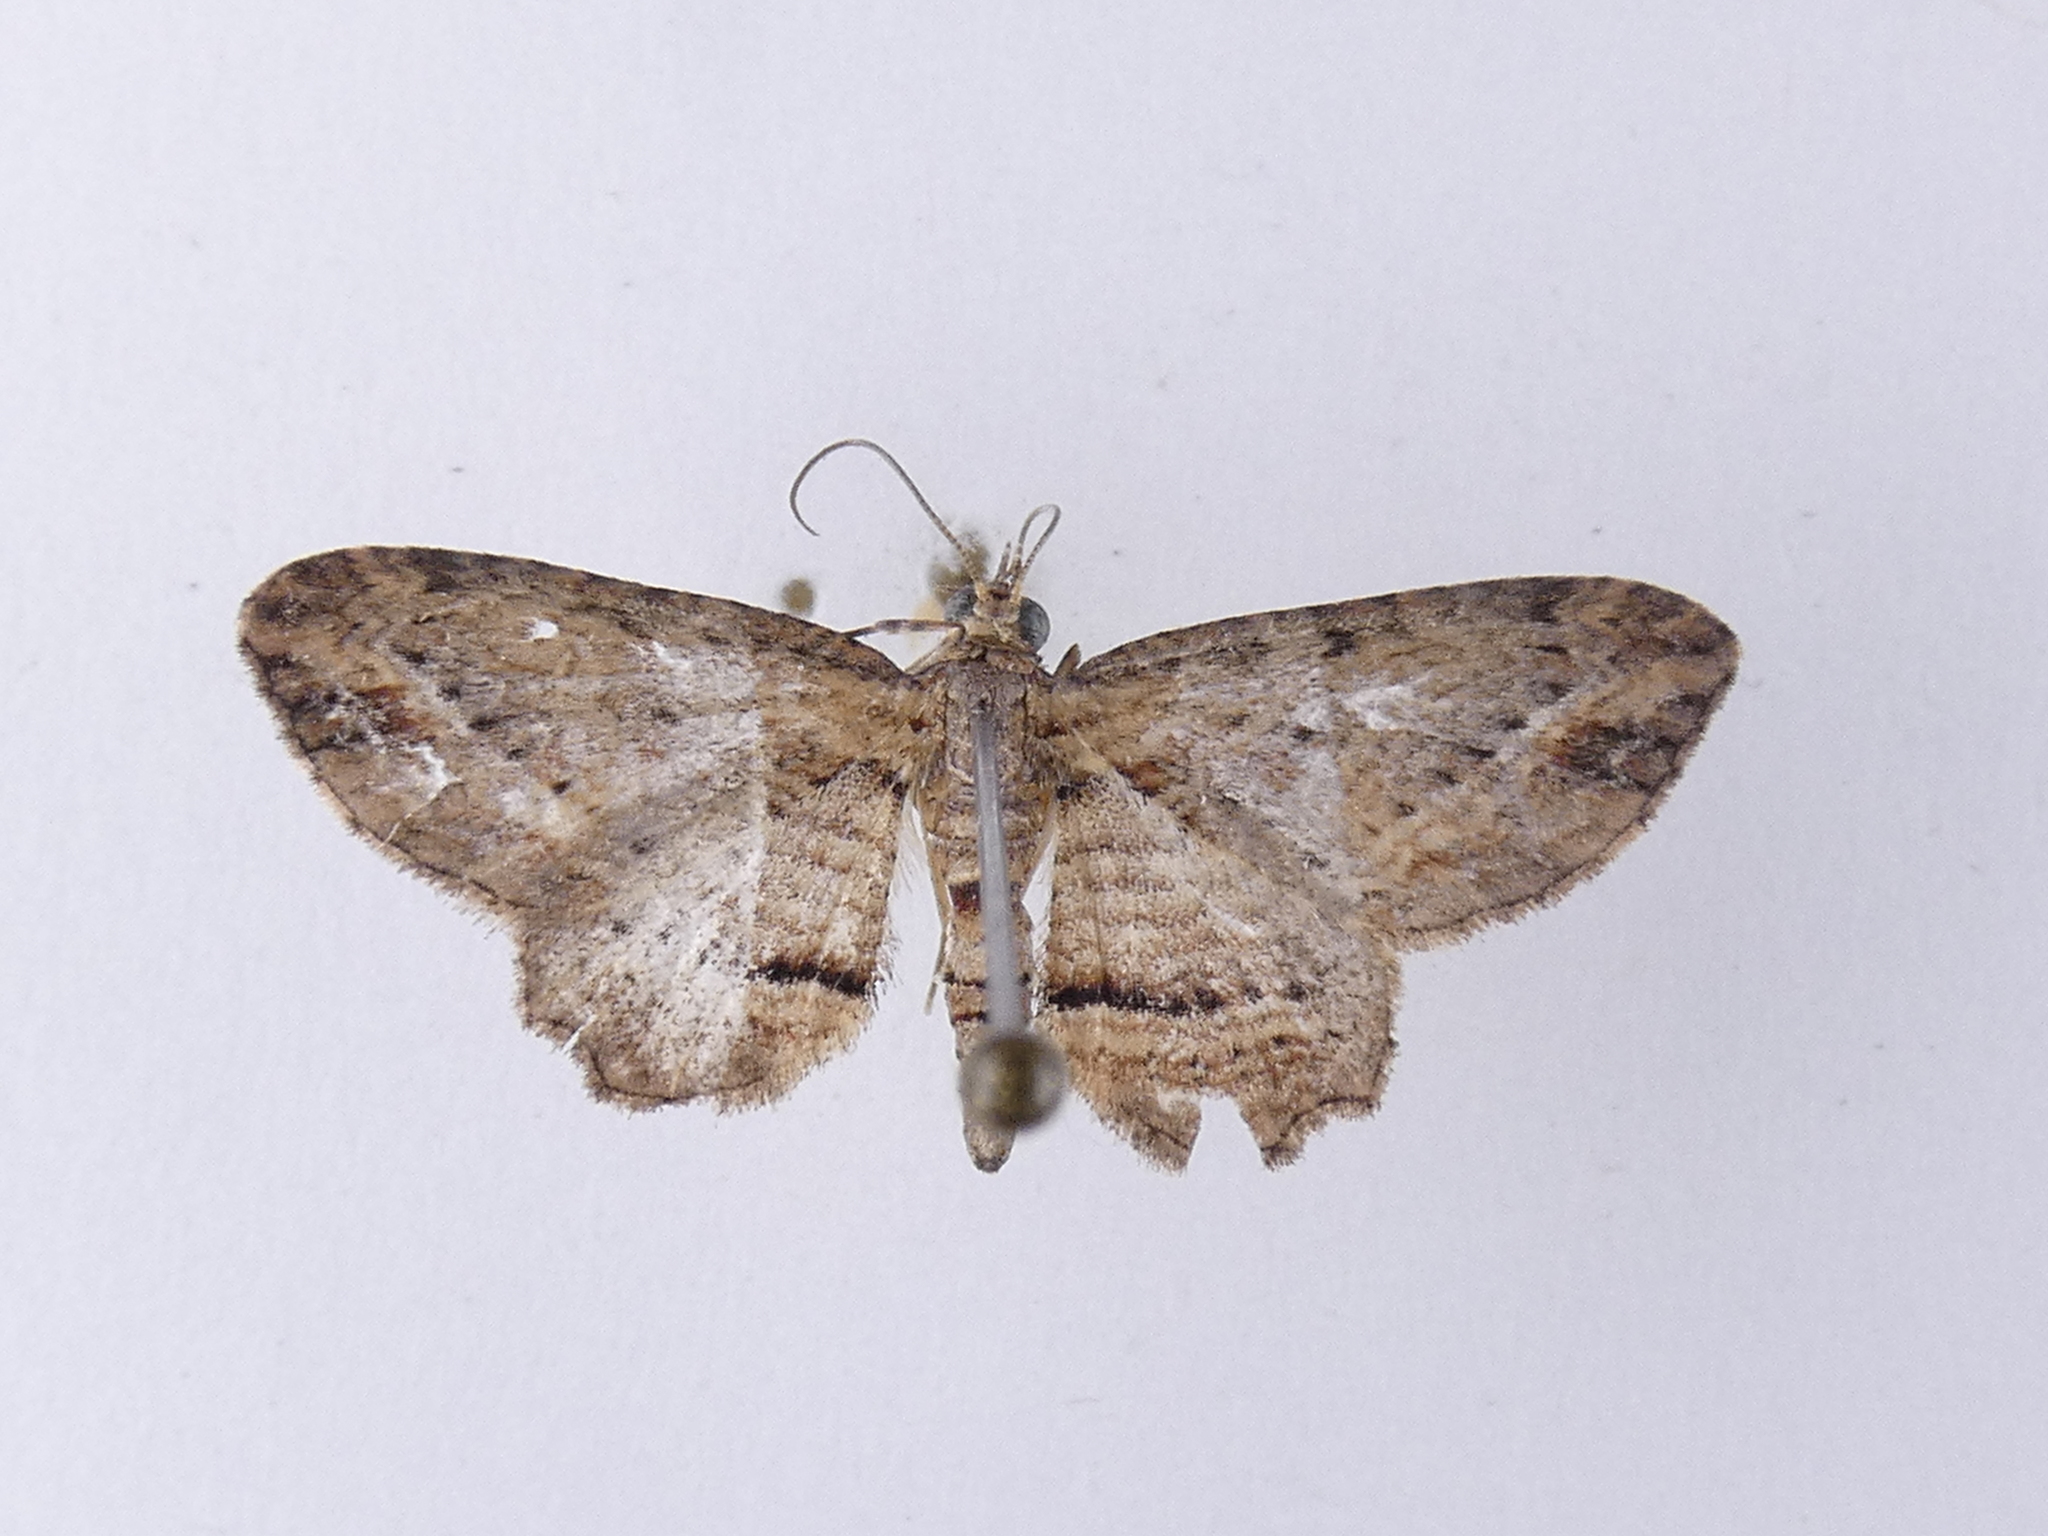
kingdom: Animalia
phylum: Arthropoda
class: Insecta
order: Lepidoptera
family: Geometridae
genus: Chloroclystis
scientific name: Chloroclystis filata
